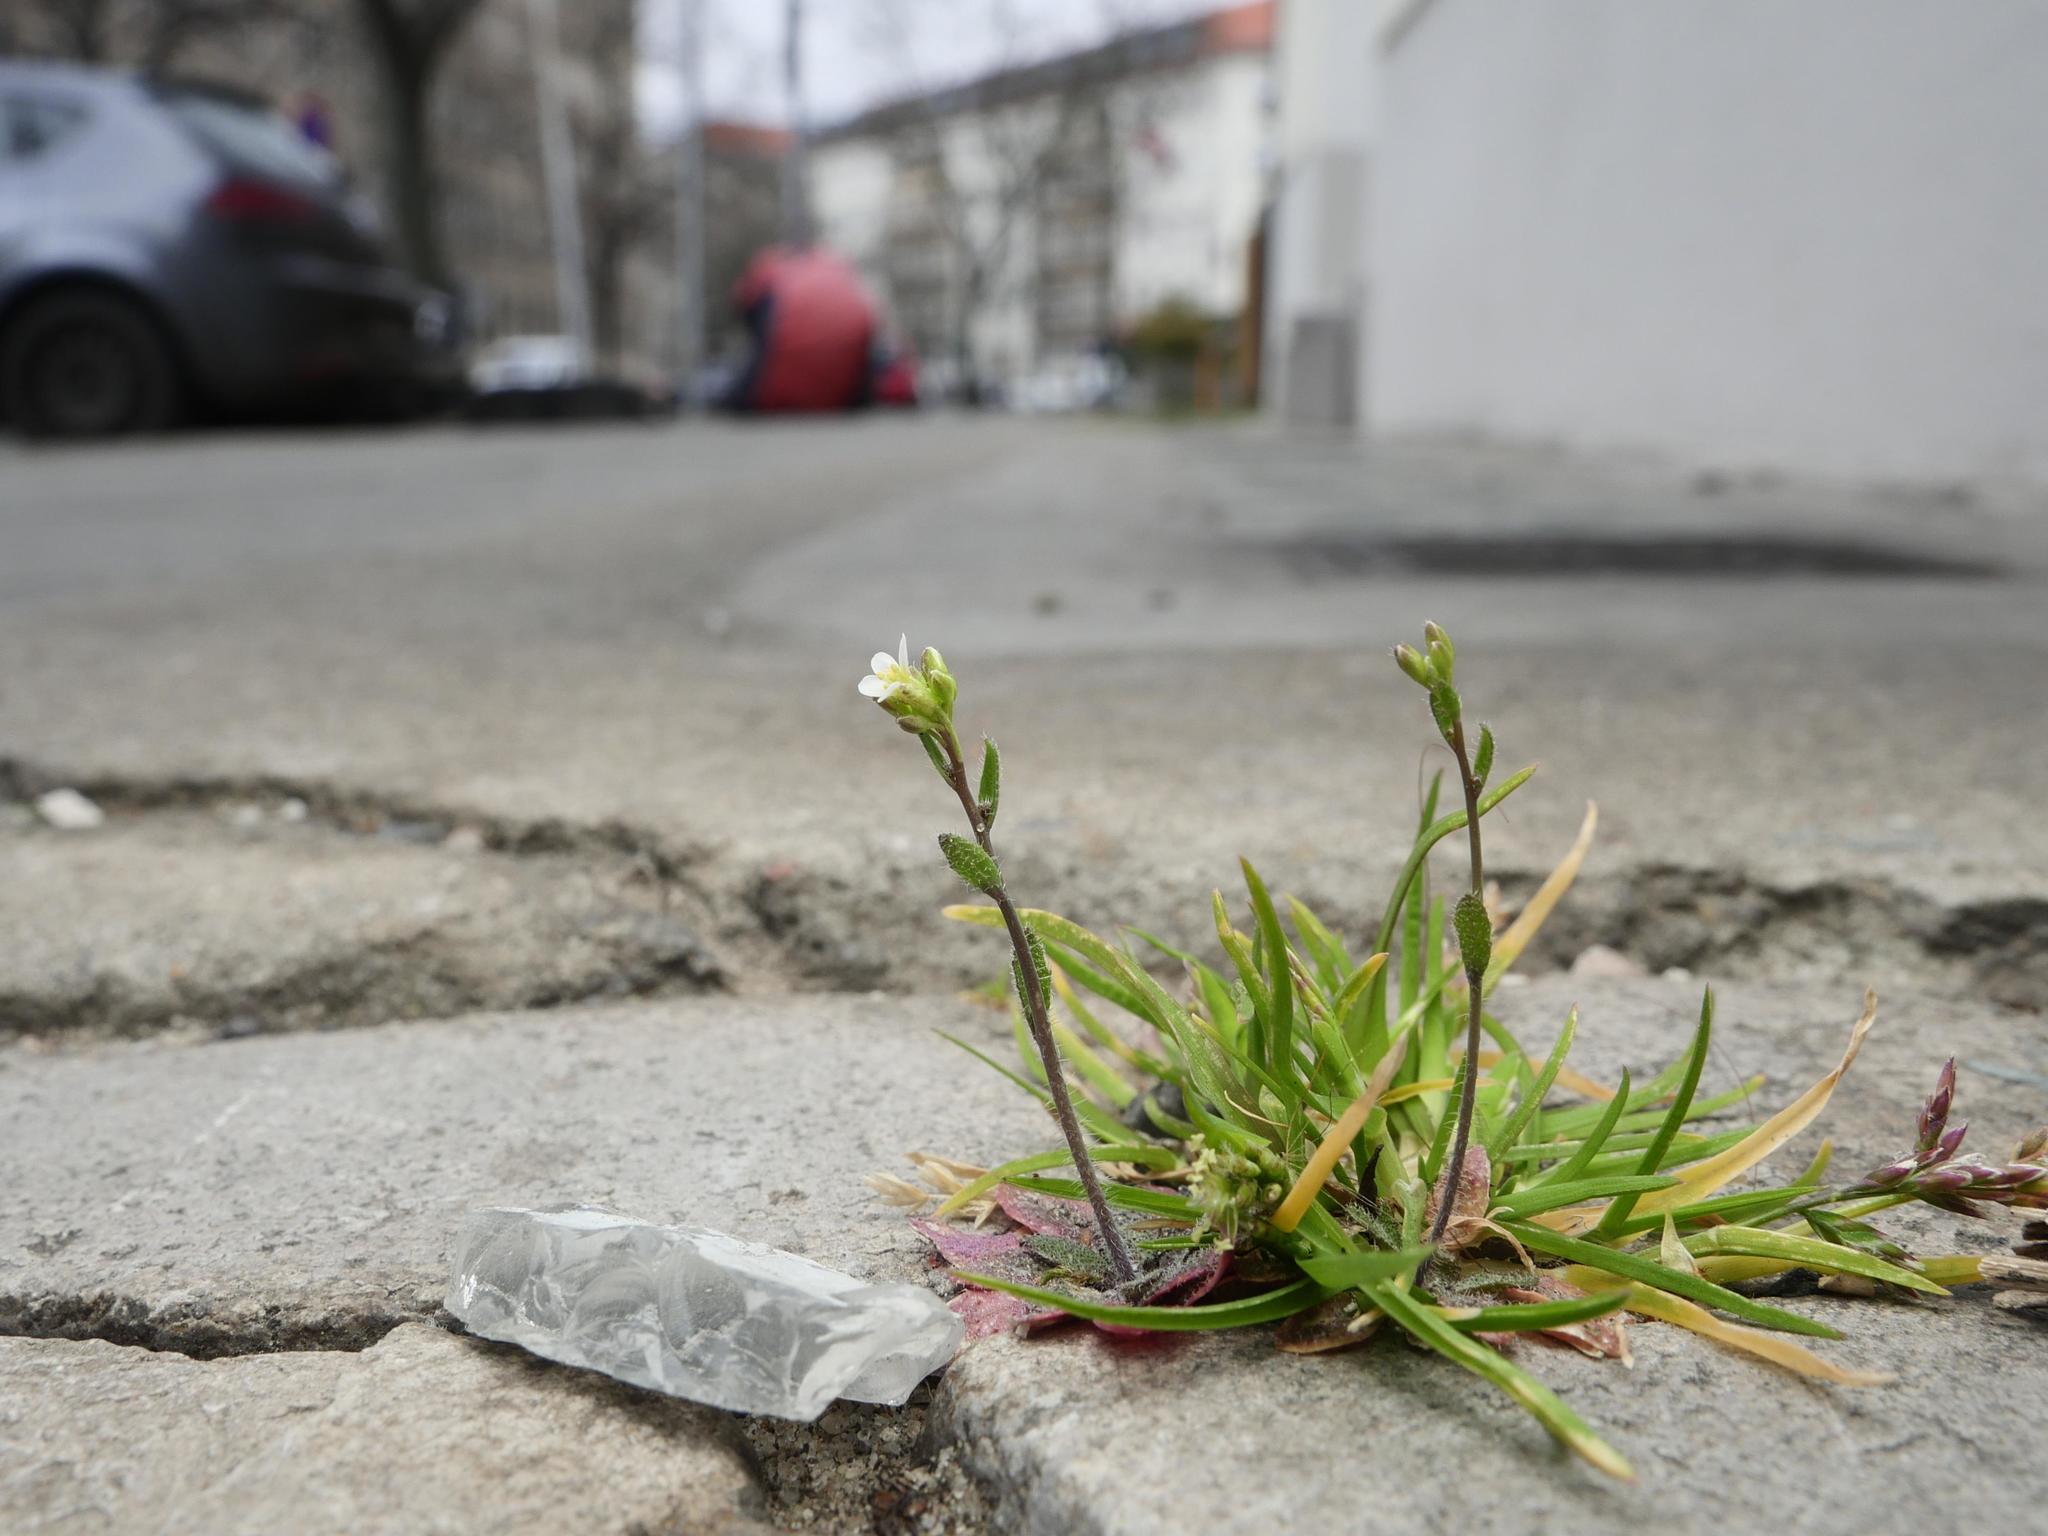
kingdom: Plantae
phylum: Tracheophyta
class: Magnoliopsida
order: Brassicales
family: Brassicaceae
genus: Arabidopsis
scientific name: Arabidopsis thaliana
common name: Thale cress
